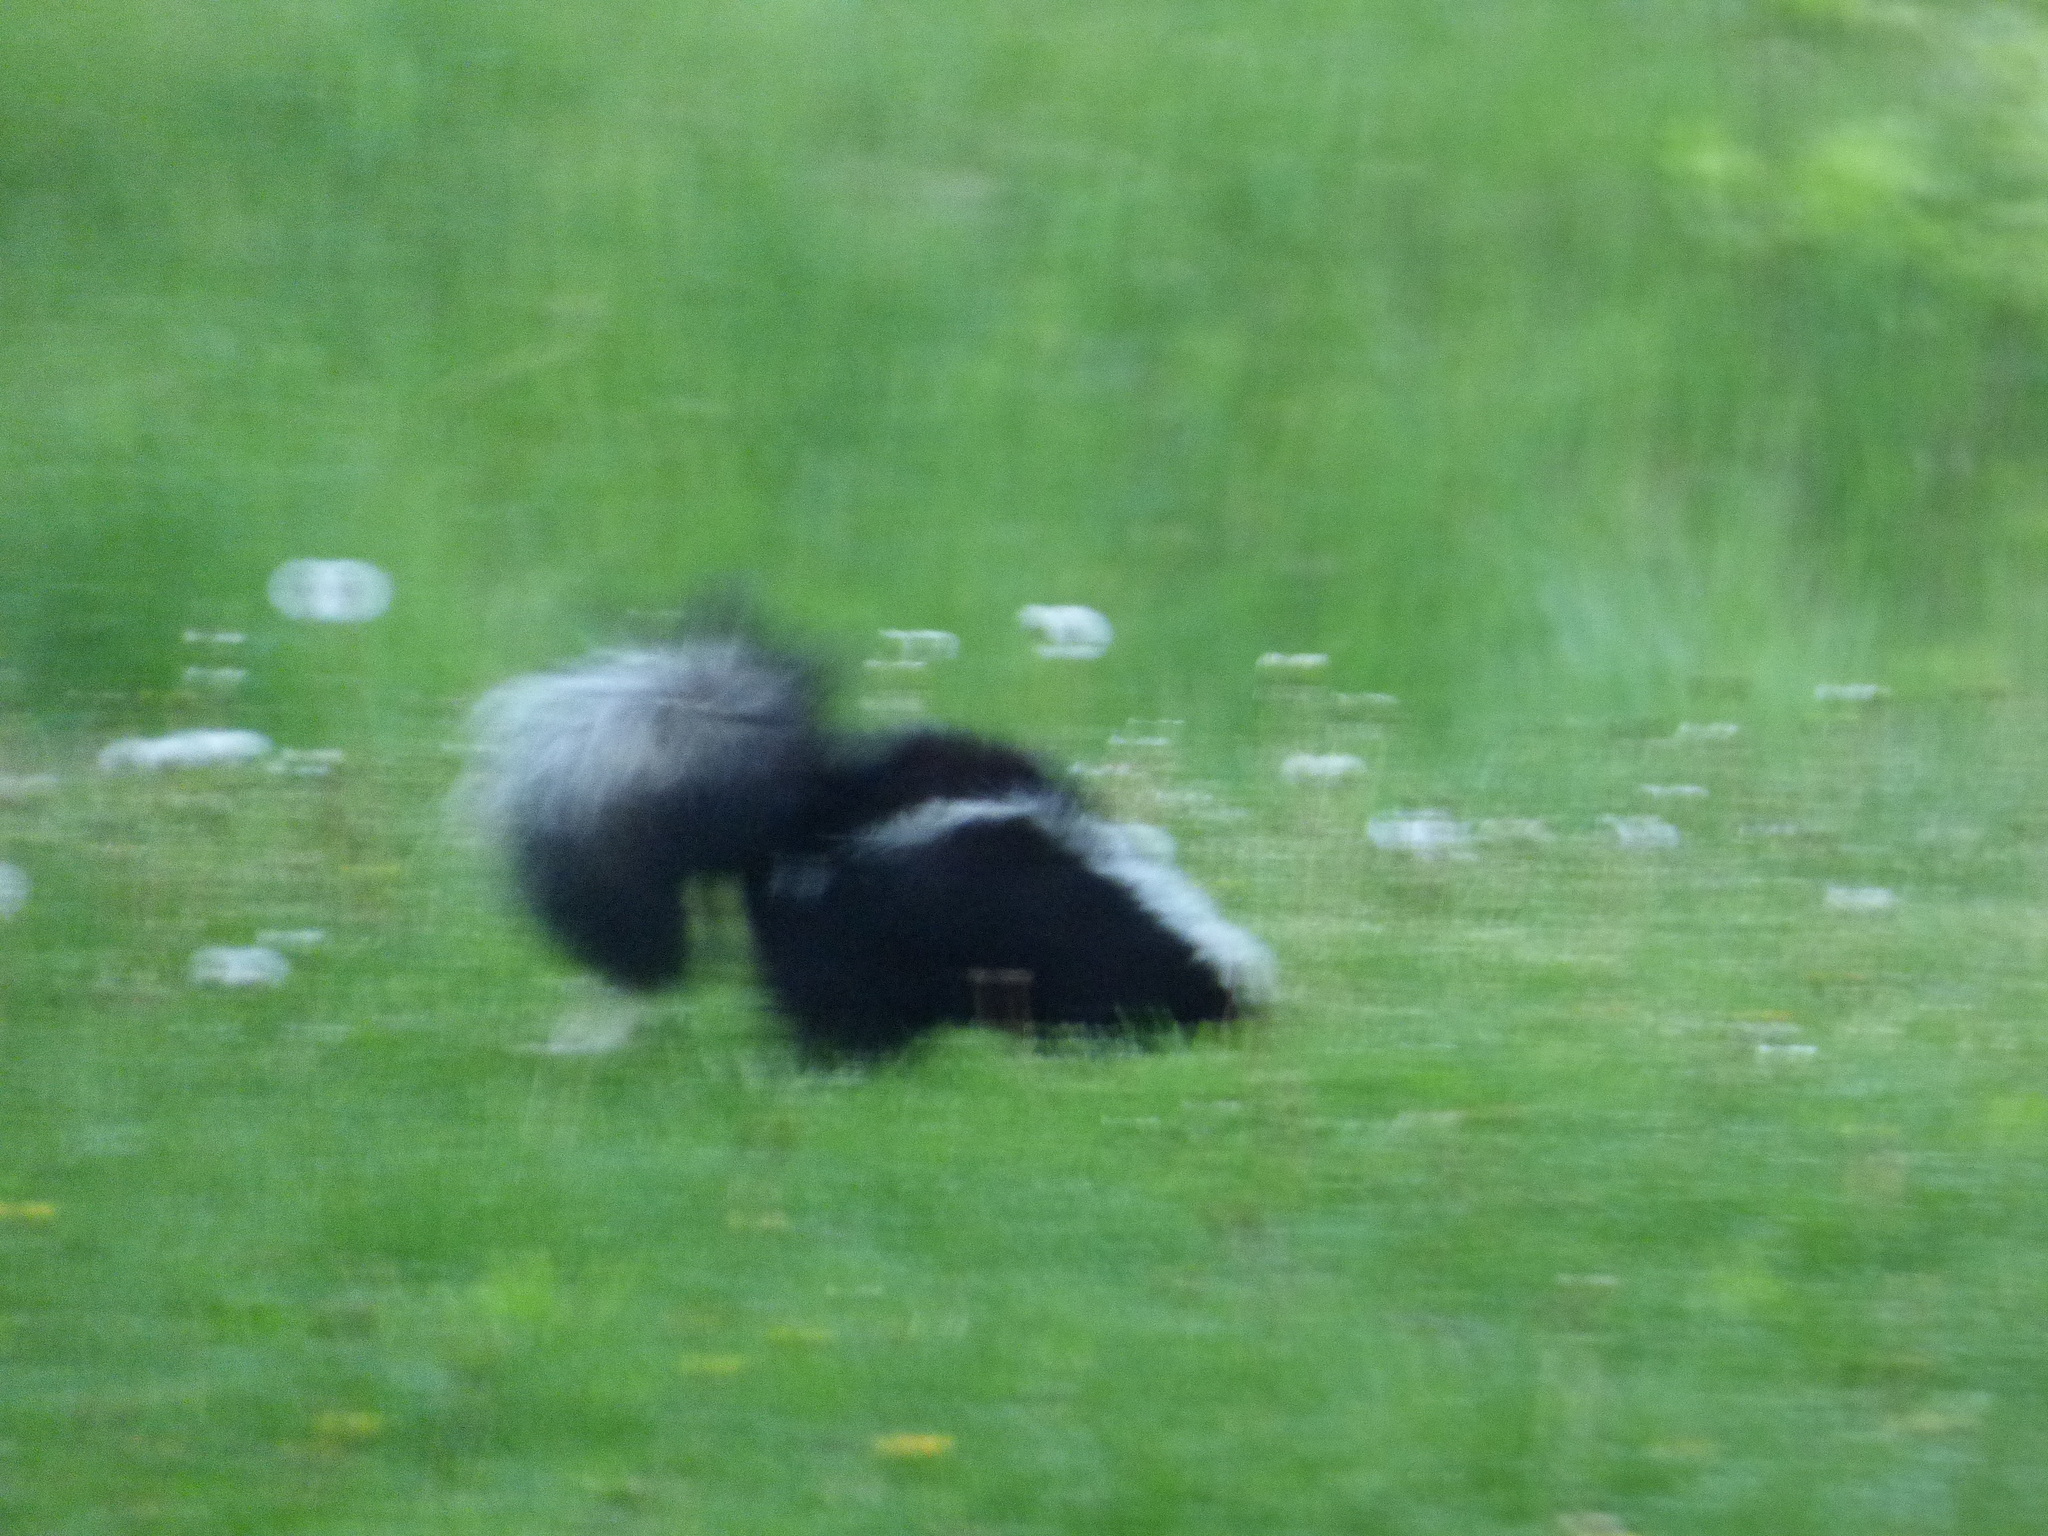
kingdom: Animalia
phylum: Chordata
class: Mammalia
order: Carnivora
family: Mephitidae
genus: Mephitis
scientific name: Mephitis mephitis
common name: Striped skunk
